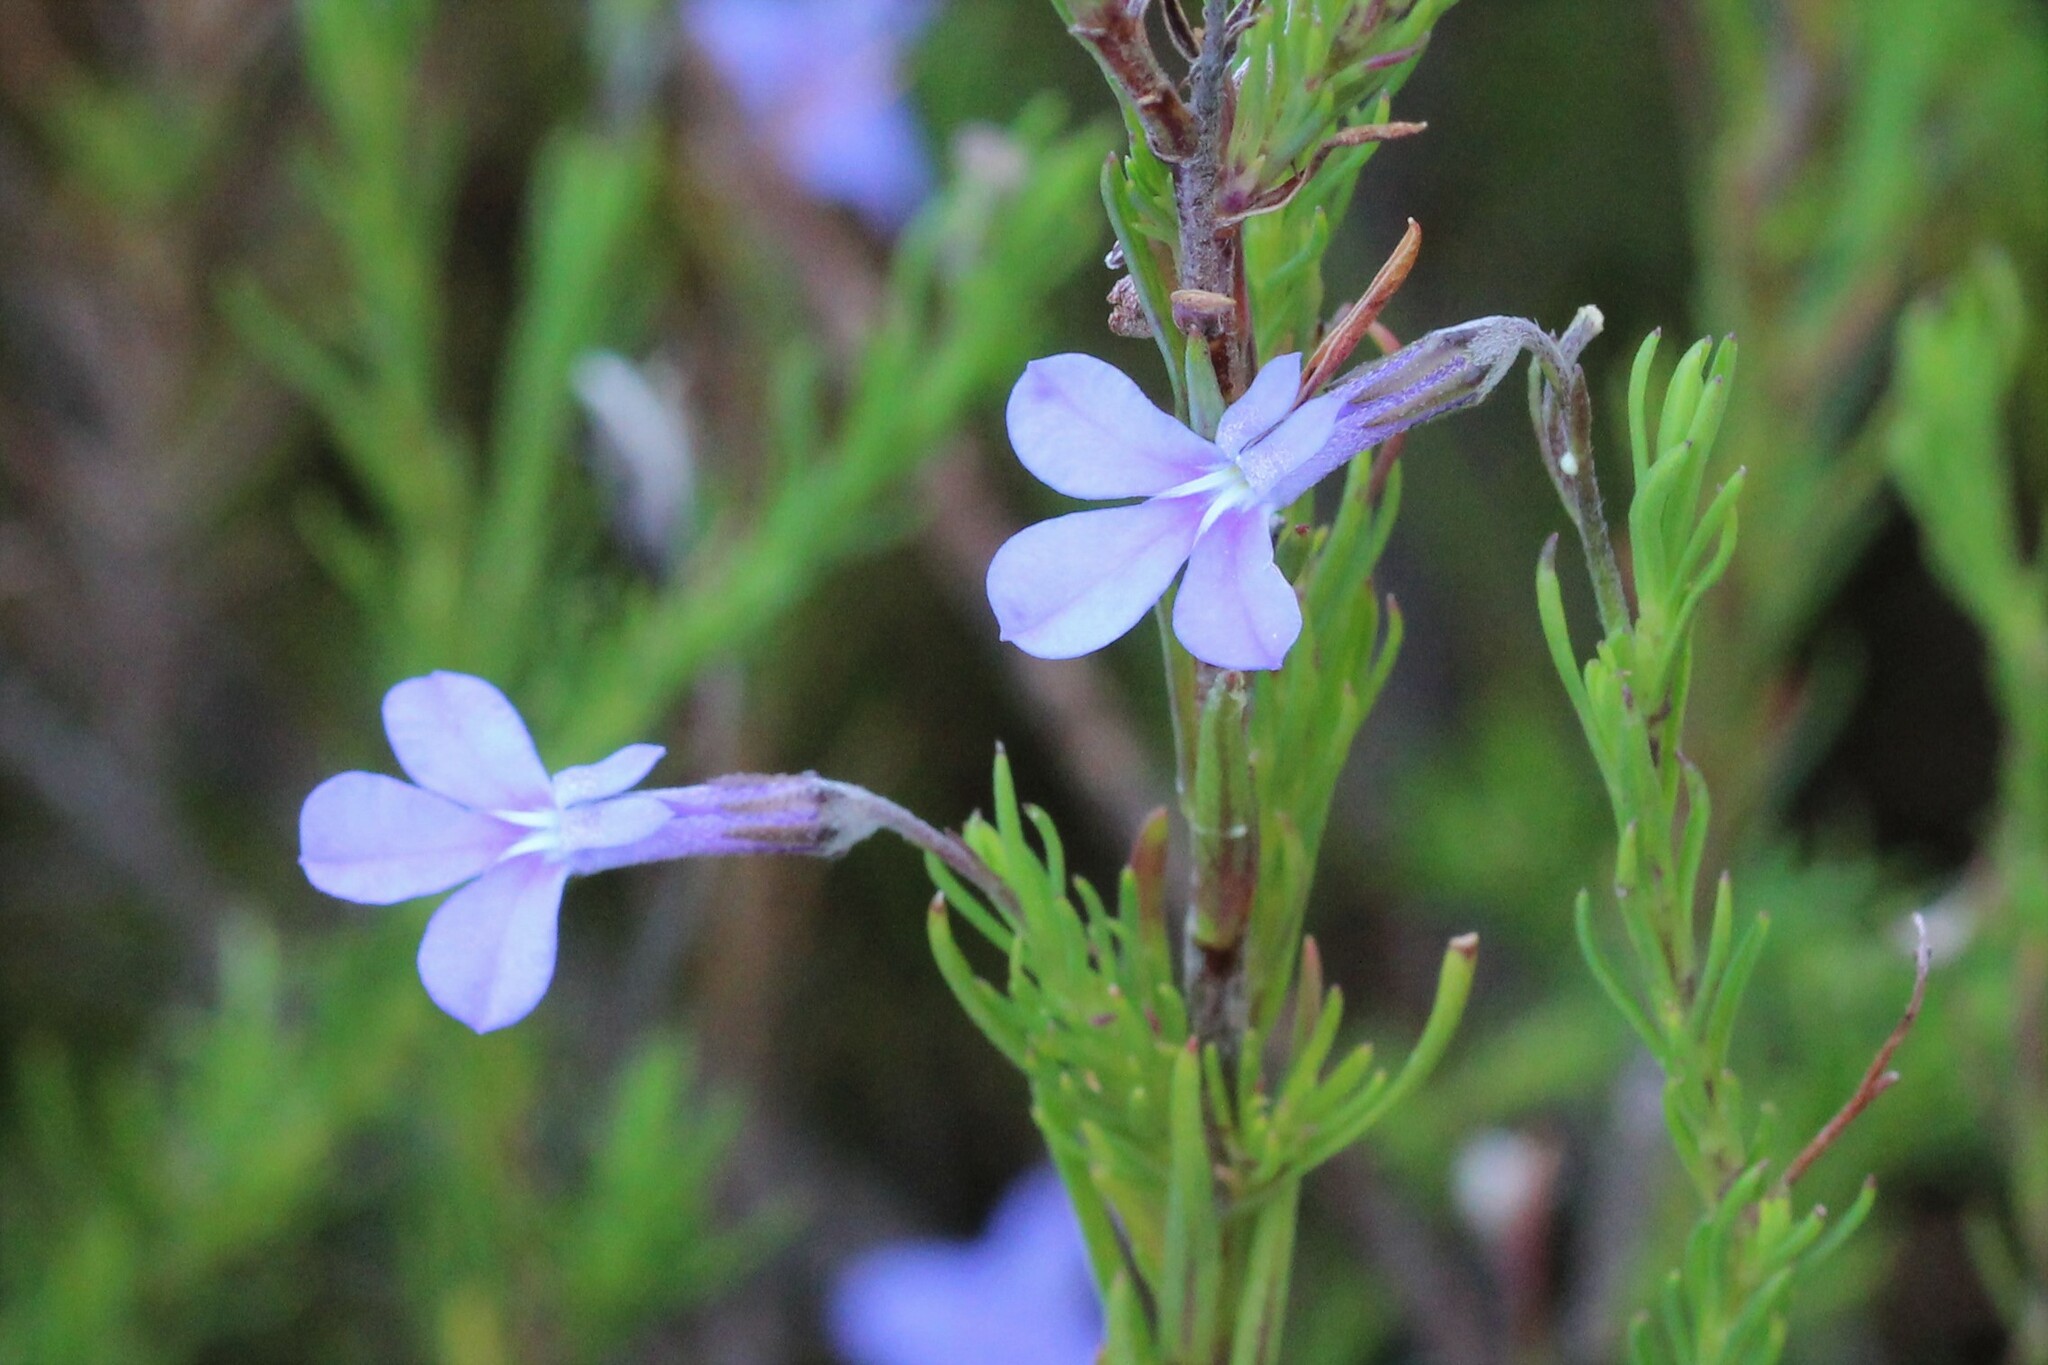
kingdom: Plantae
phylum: Tracheophyta
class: Magnoliopsida
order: Asterales
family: Campanulaceae
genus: Lobelia
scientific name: Lobelia pinifolia
